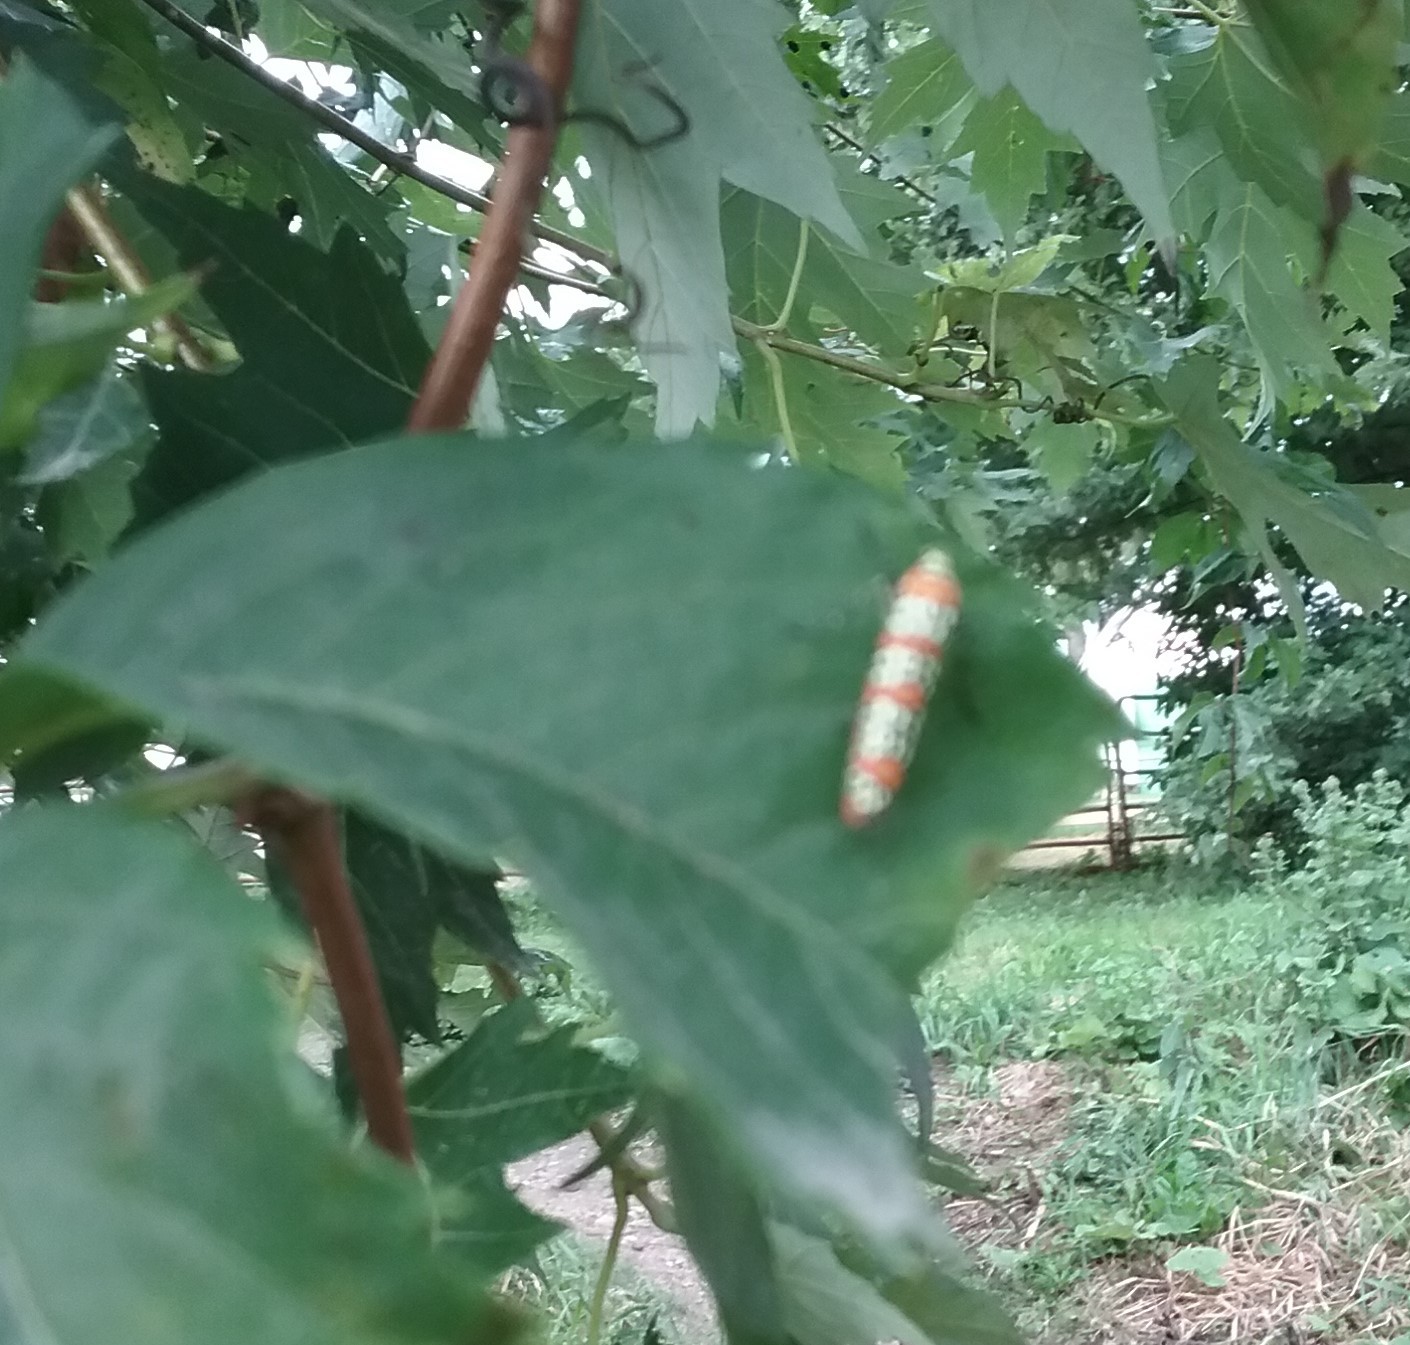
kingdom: Animalia
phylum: Arthropoda
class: Insecta
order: Lepidoptera
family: Attevidae
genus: Atteva
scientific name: Atteva punctella
